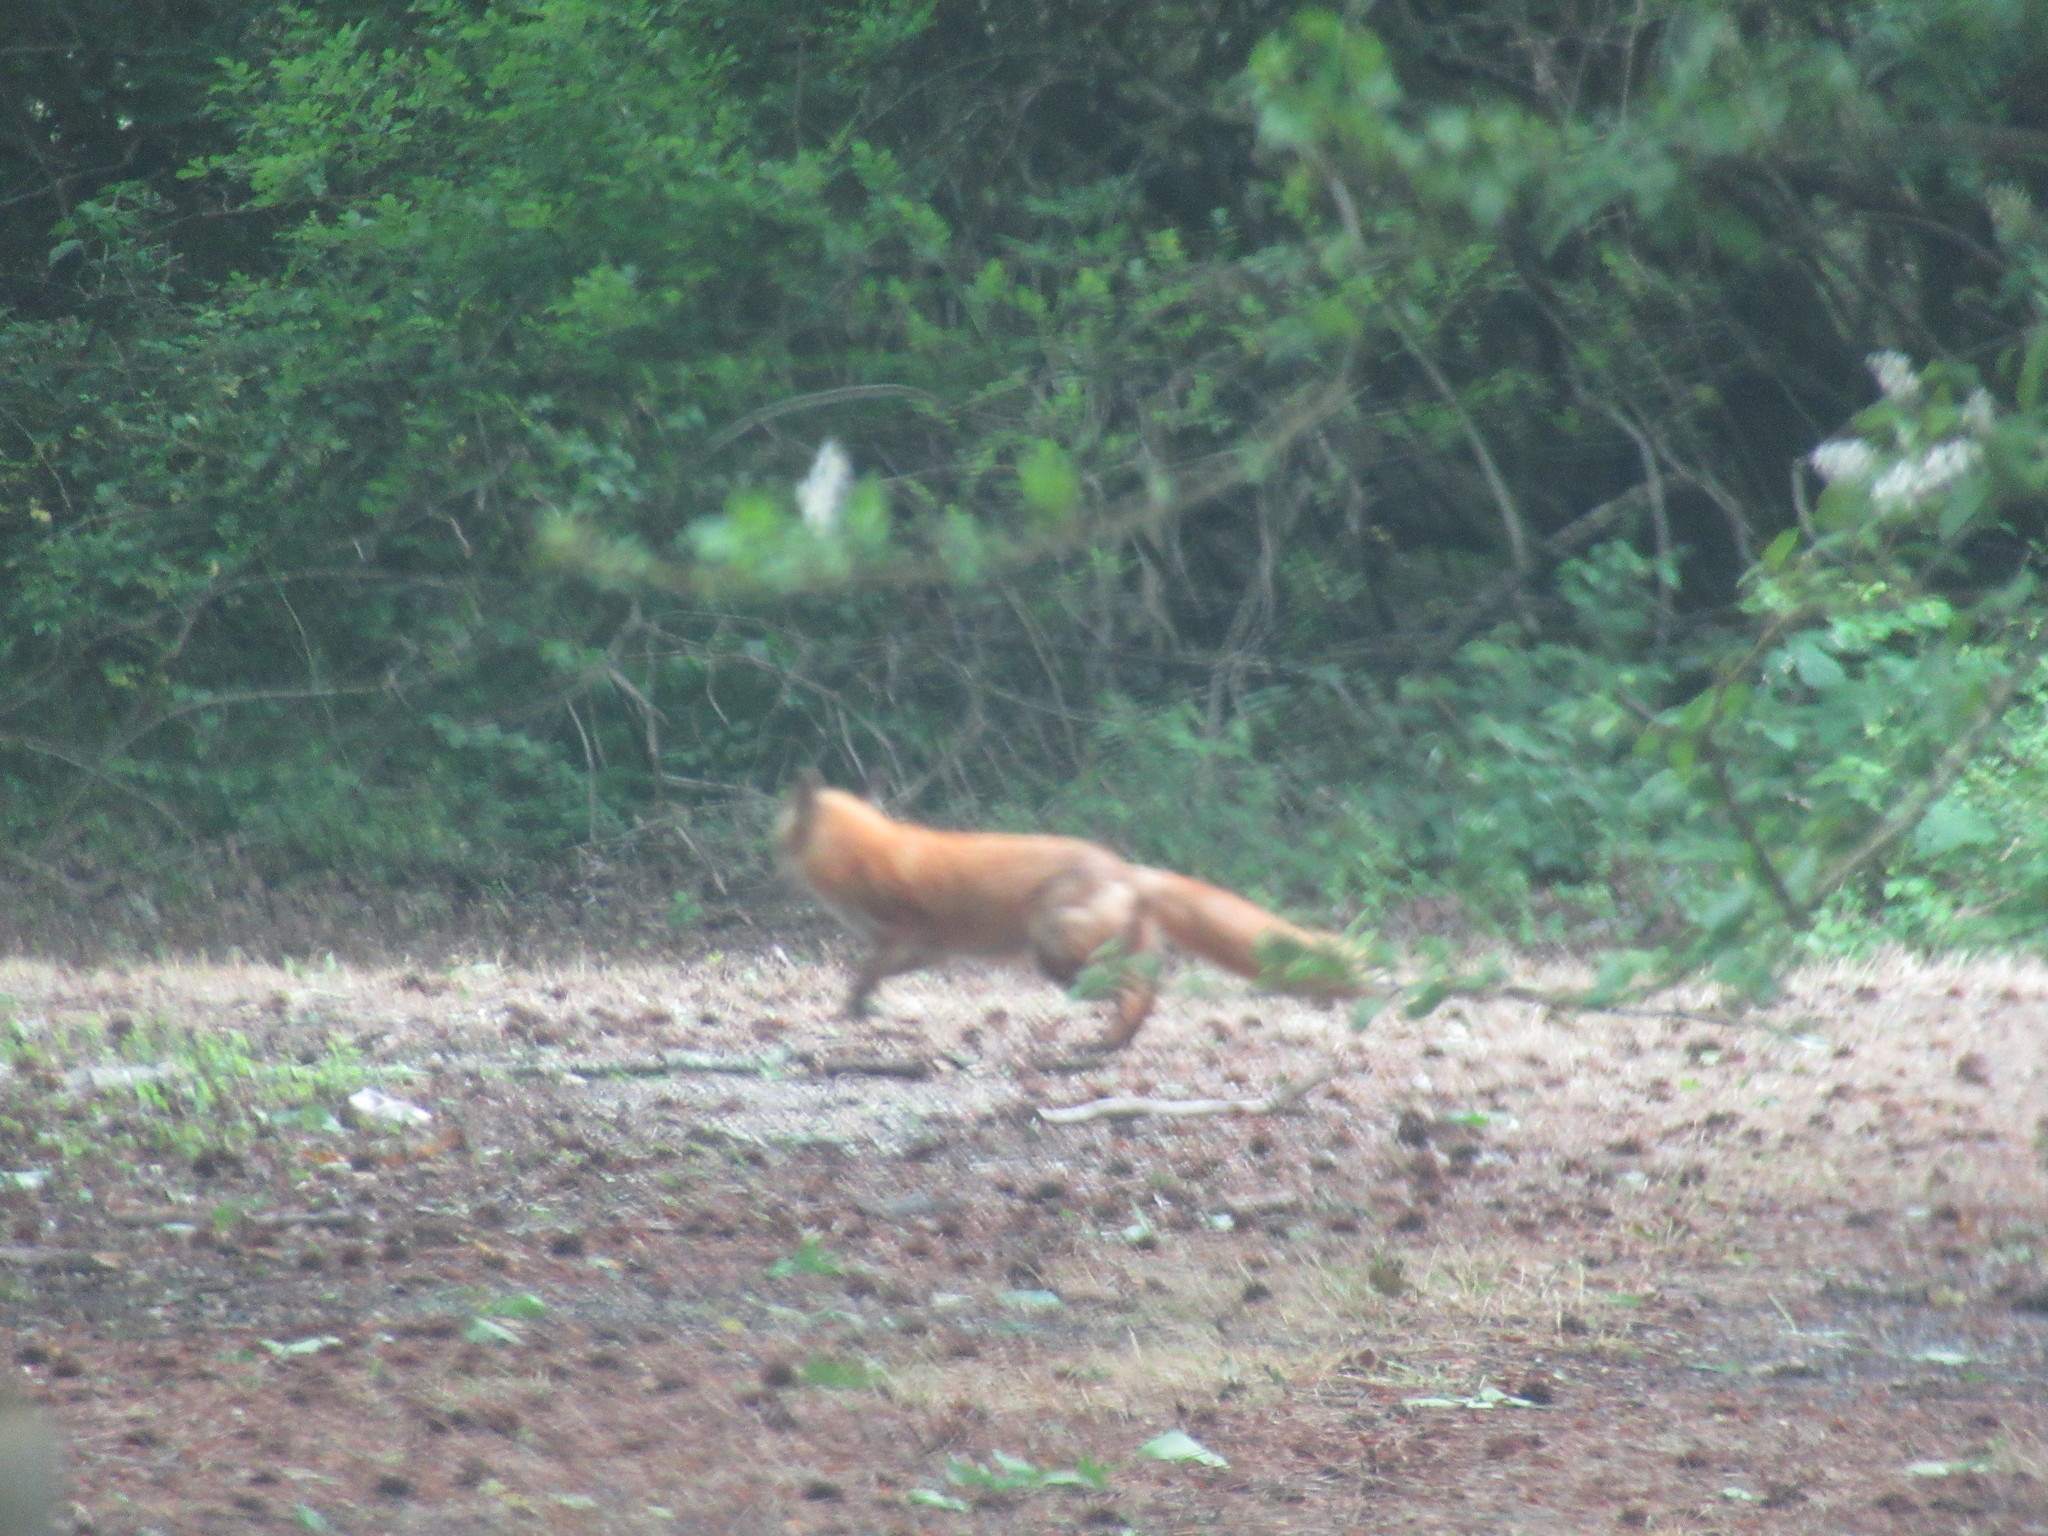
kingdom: Animalia
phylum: Chordata
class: Mammalia
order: Carnivora
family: Canidae
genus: Vulpes
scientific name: Vulpes vulpes
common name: Red fox
